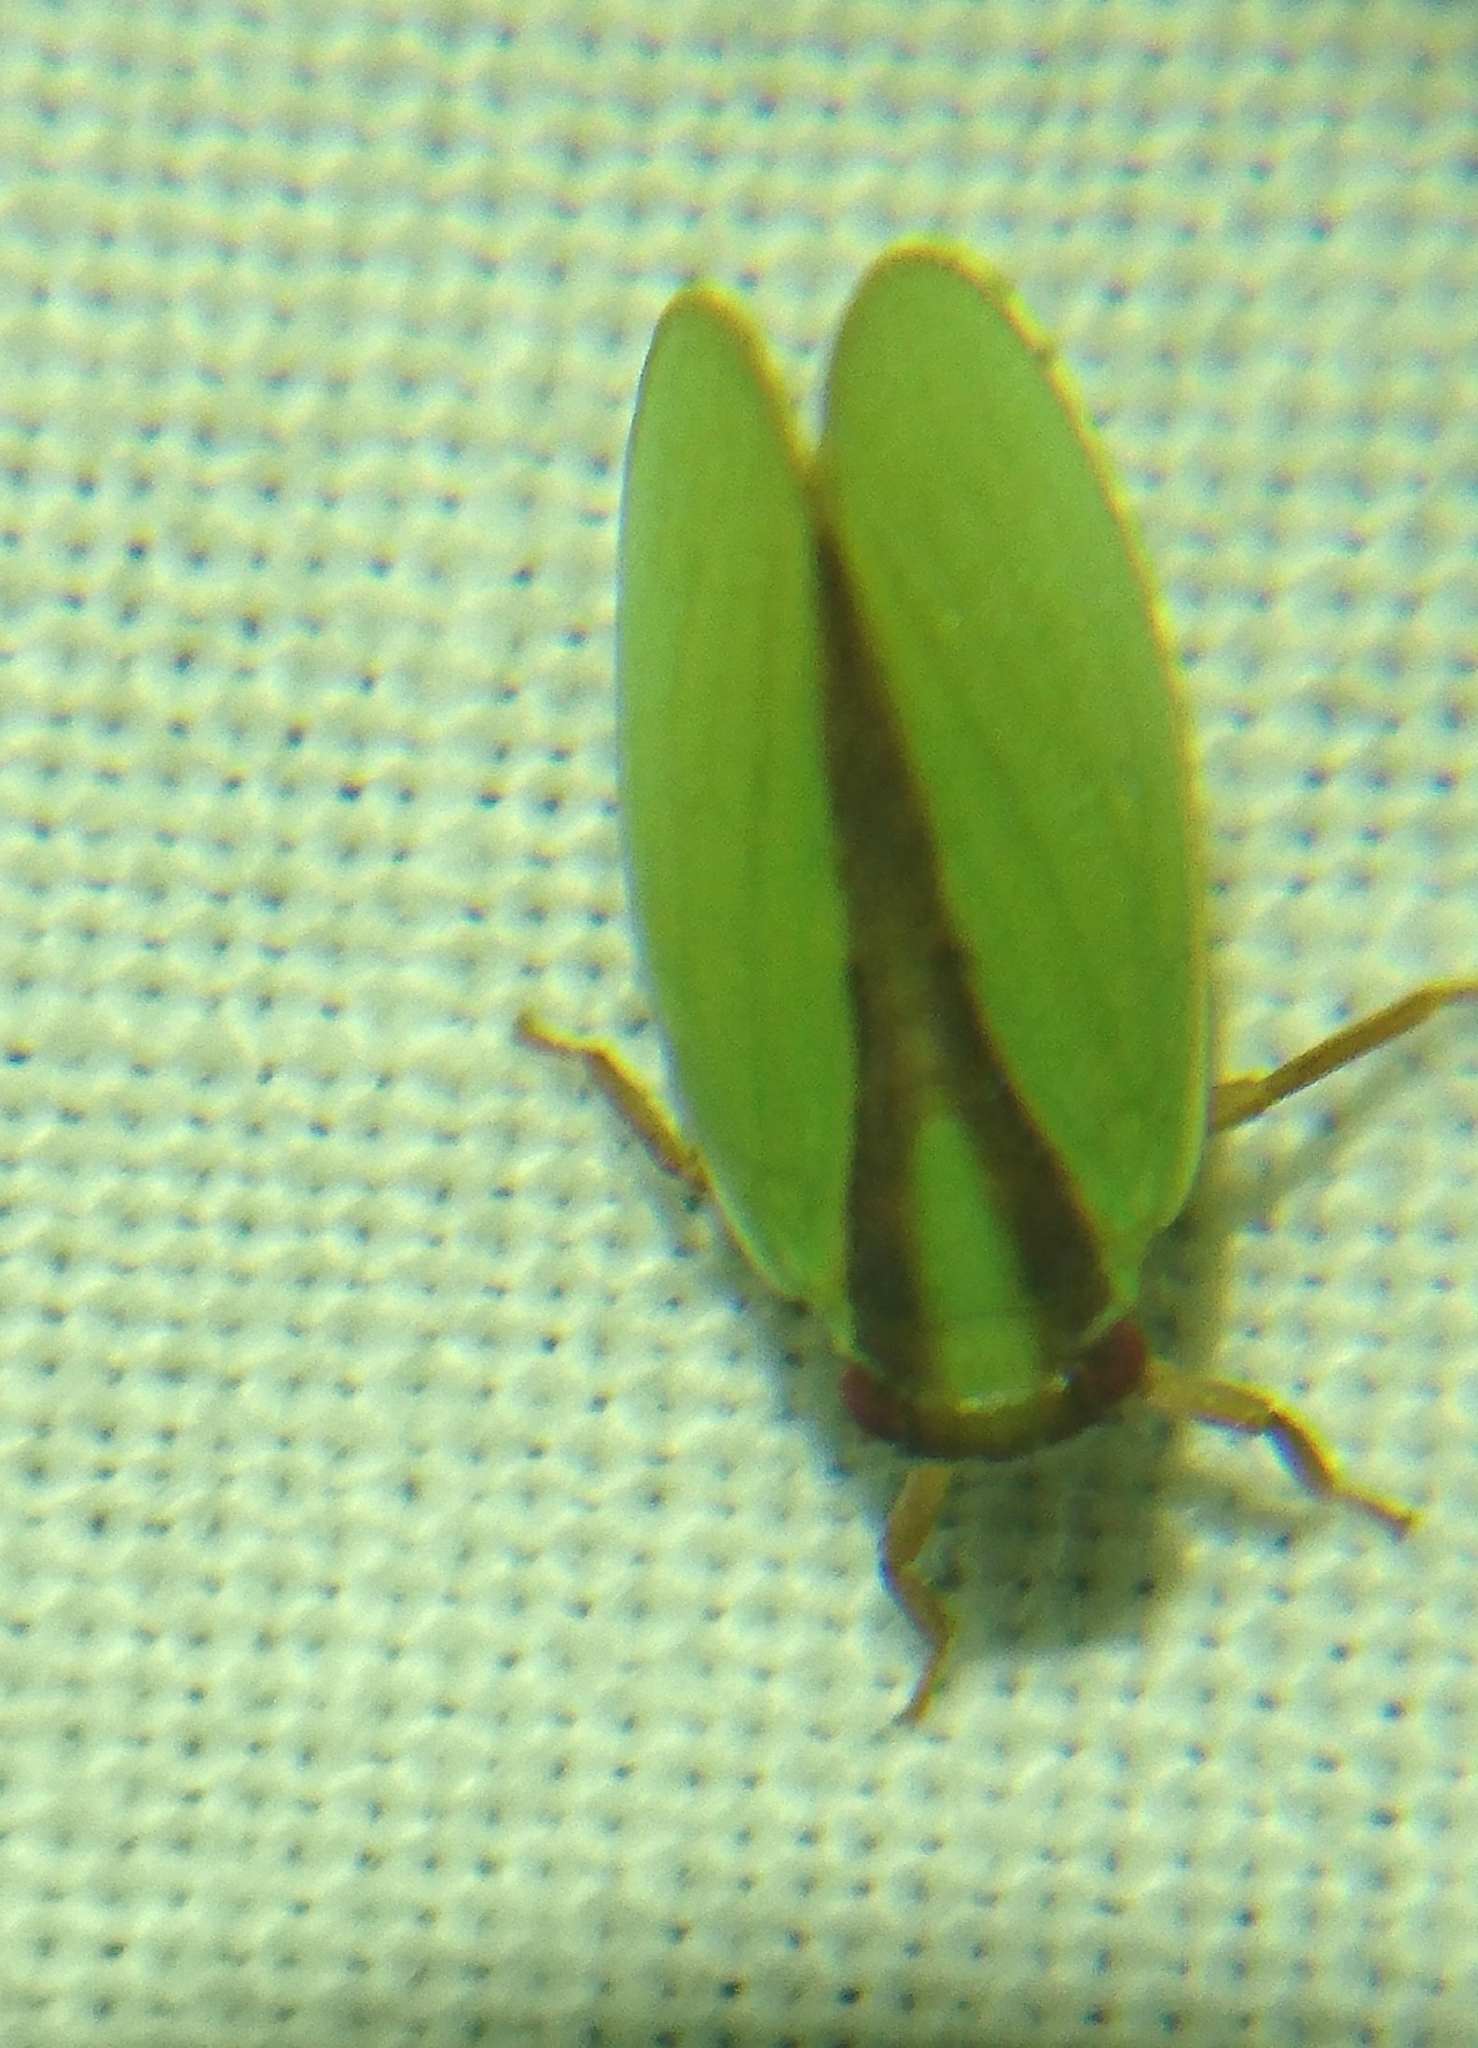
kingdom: Animalia
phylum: Arthropoda
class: Insecta
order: Hemiptera
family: Acanaloniidae
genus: Acanalonia
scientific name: Acanalonia bivittata
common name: Two-striped planthopper
